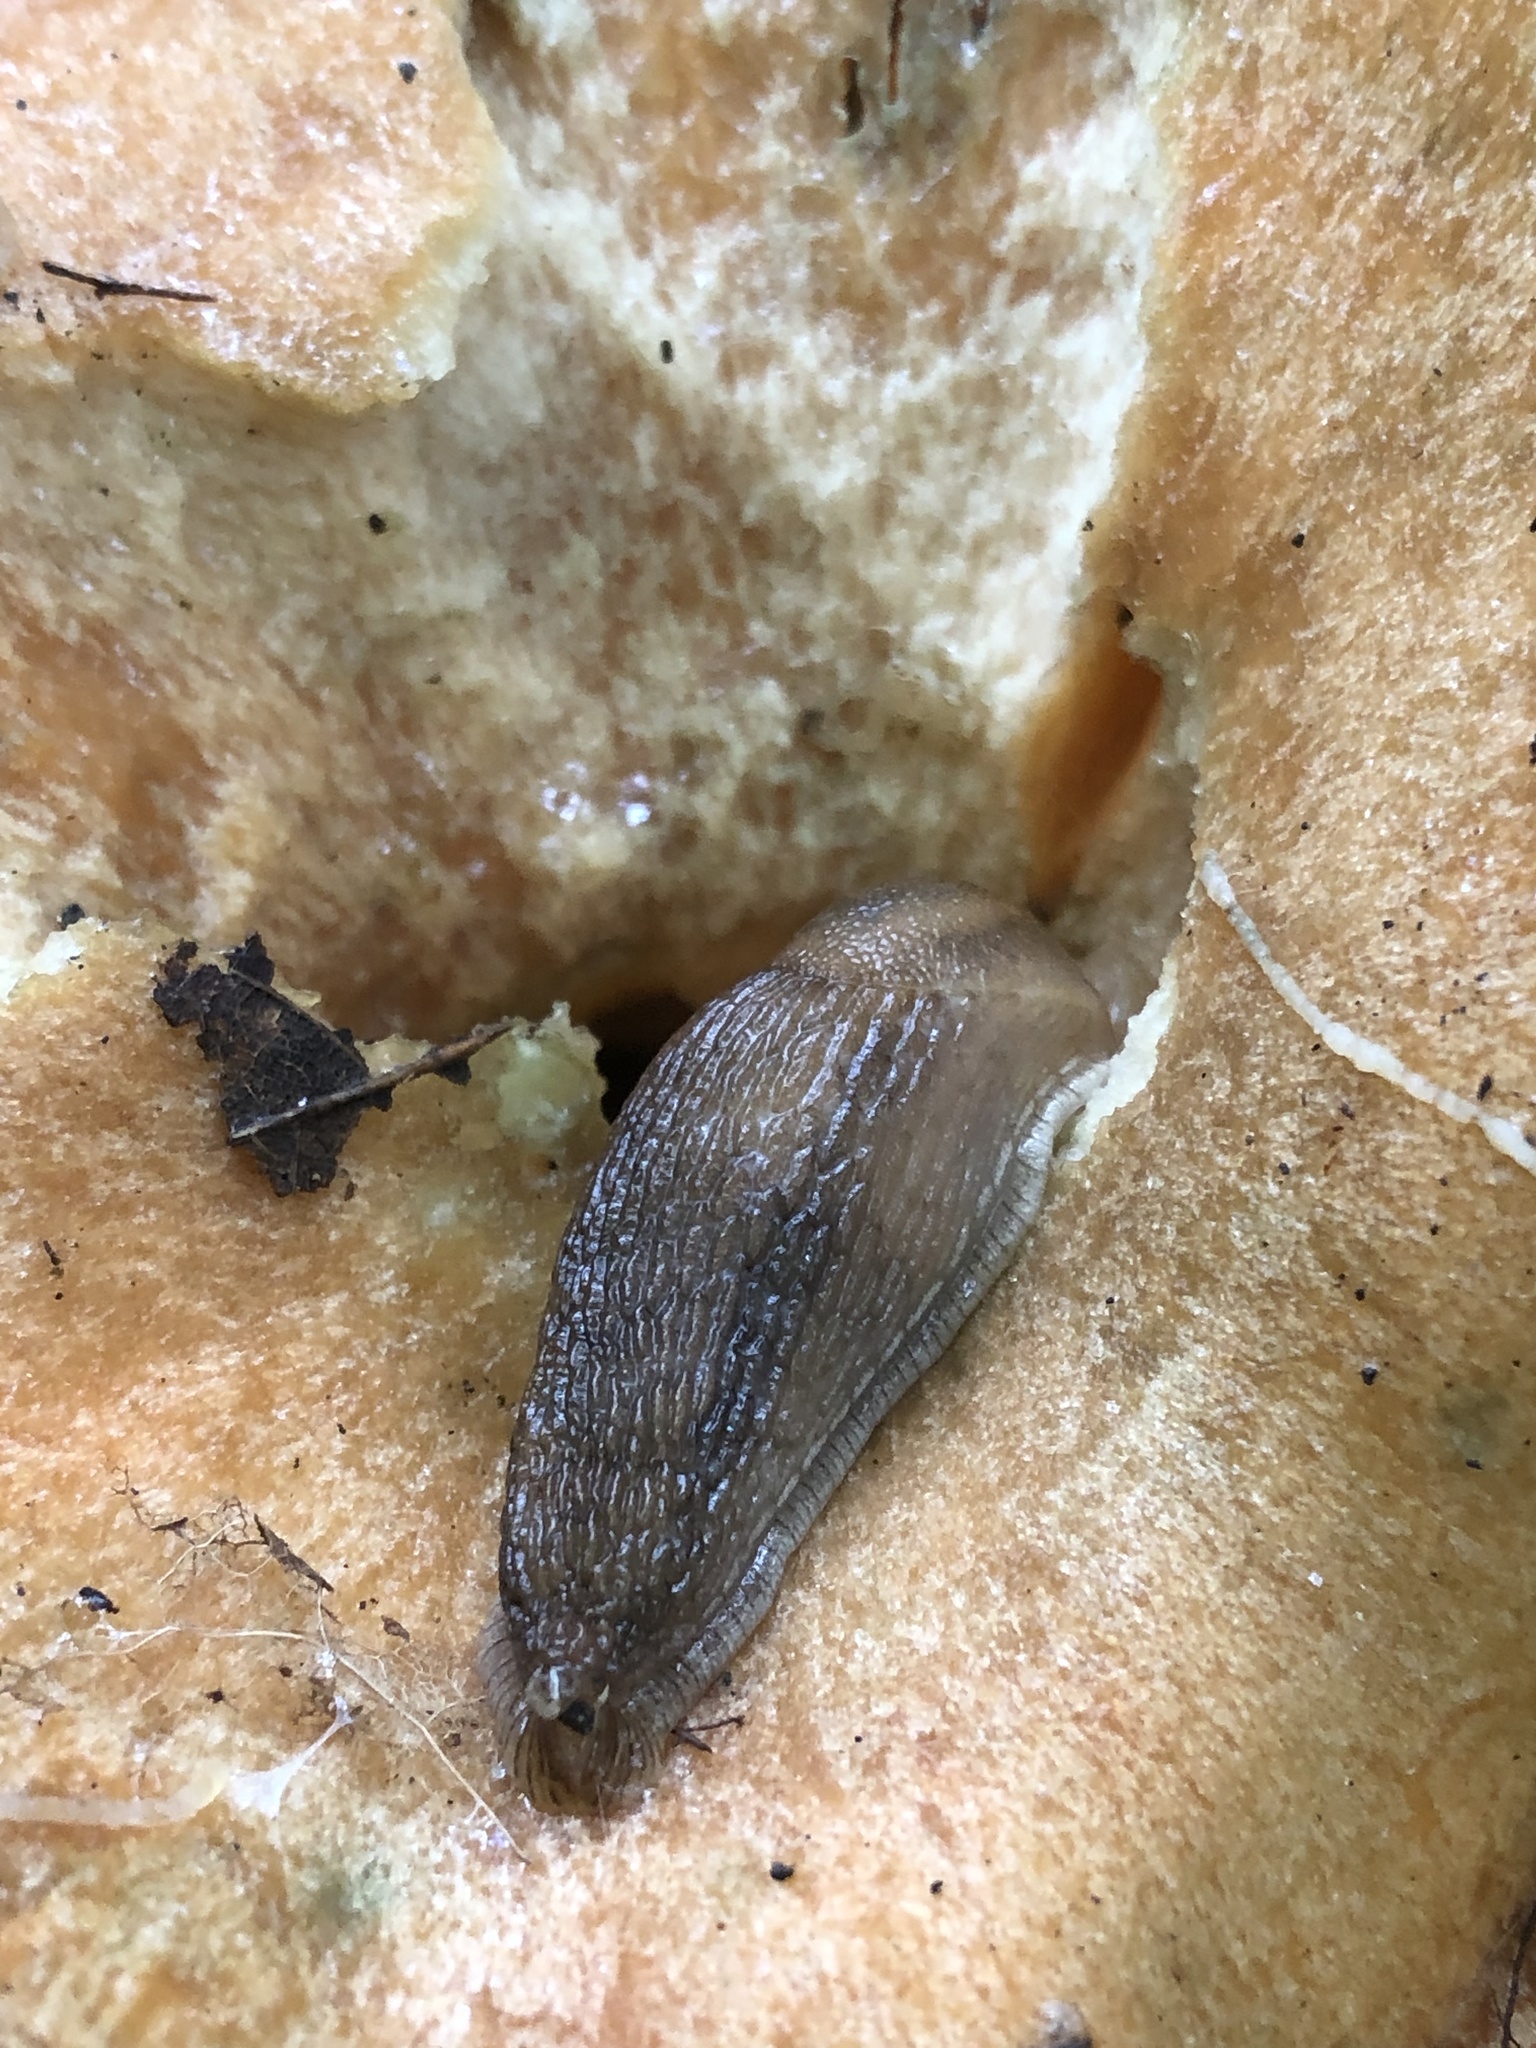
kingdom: Animalia
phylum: Mollusca
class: Gastropoda
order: Stylommatophora
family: Arionidae
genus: Arion
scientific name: Arion subfuscus
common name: Dusky arion
